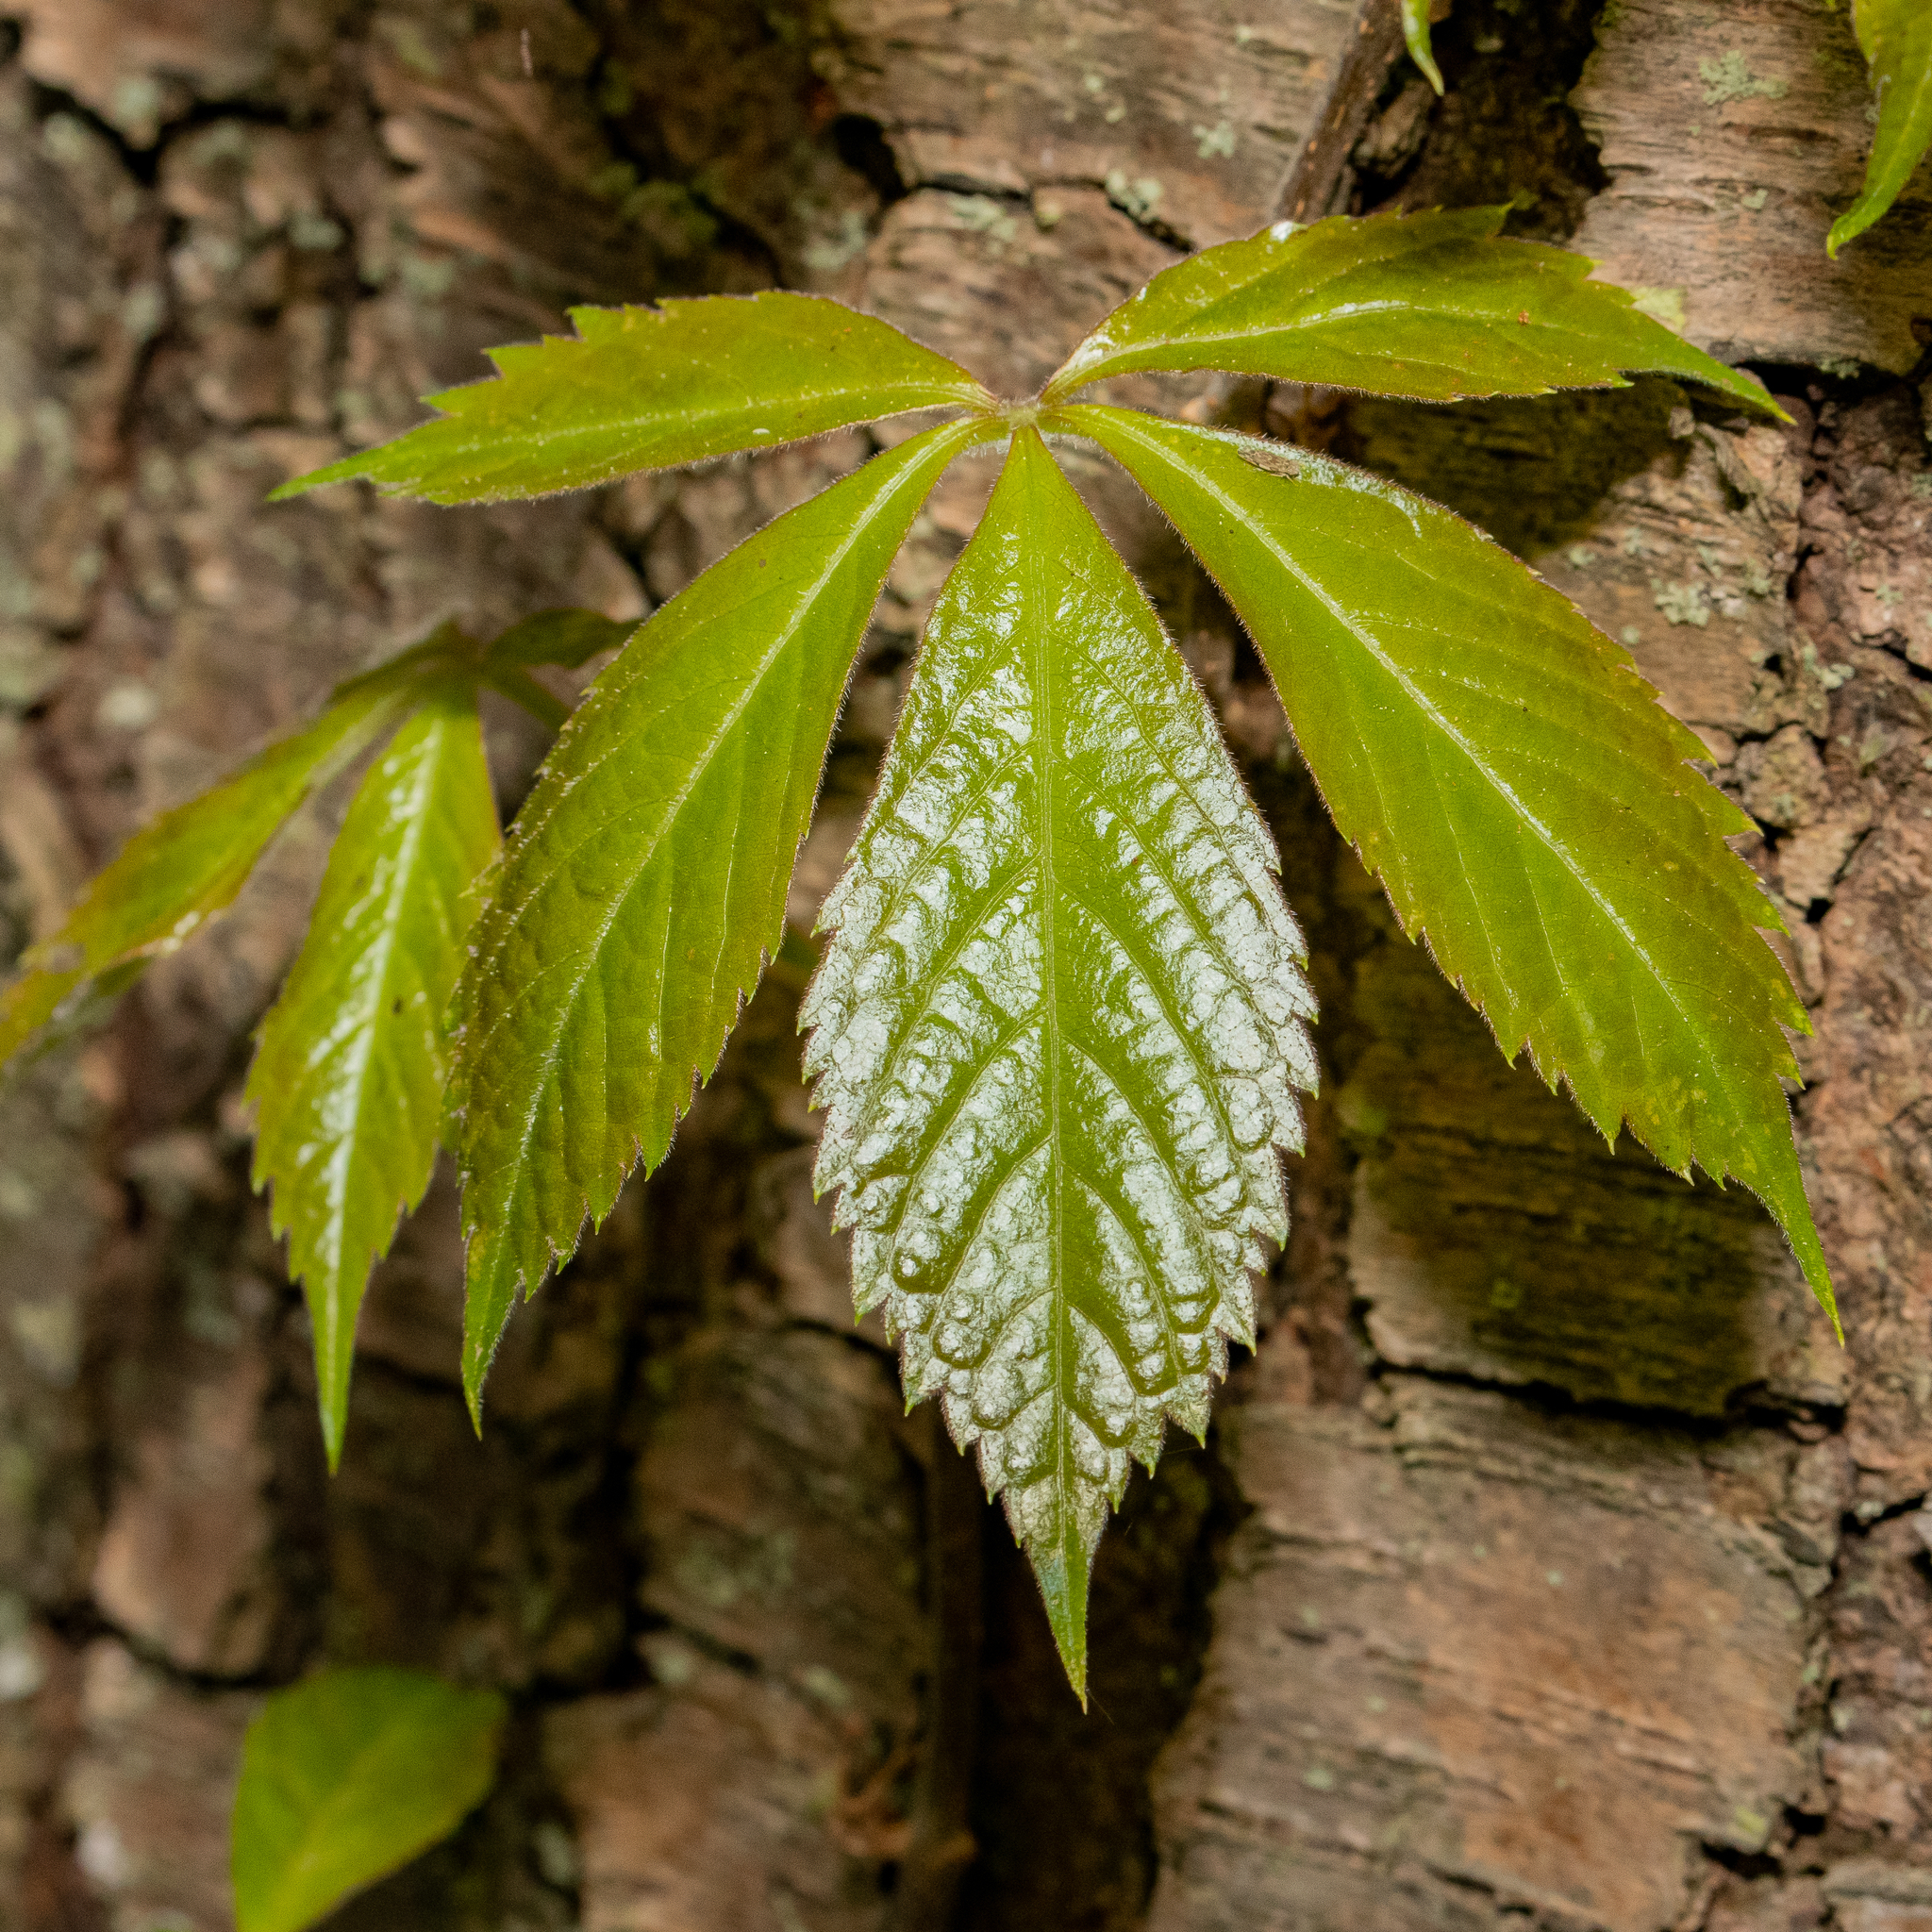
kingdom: Plantae
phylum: Tracheophyta
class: Magnoliopsida
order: Vitales
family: Vitaceae
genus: Parthenocissus
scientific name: Parthenocissus quinquefolia
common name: Virginia-creeper
